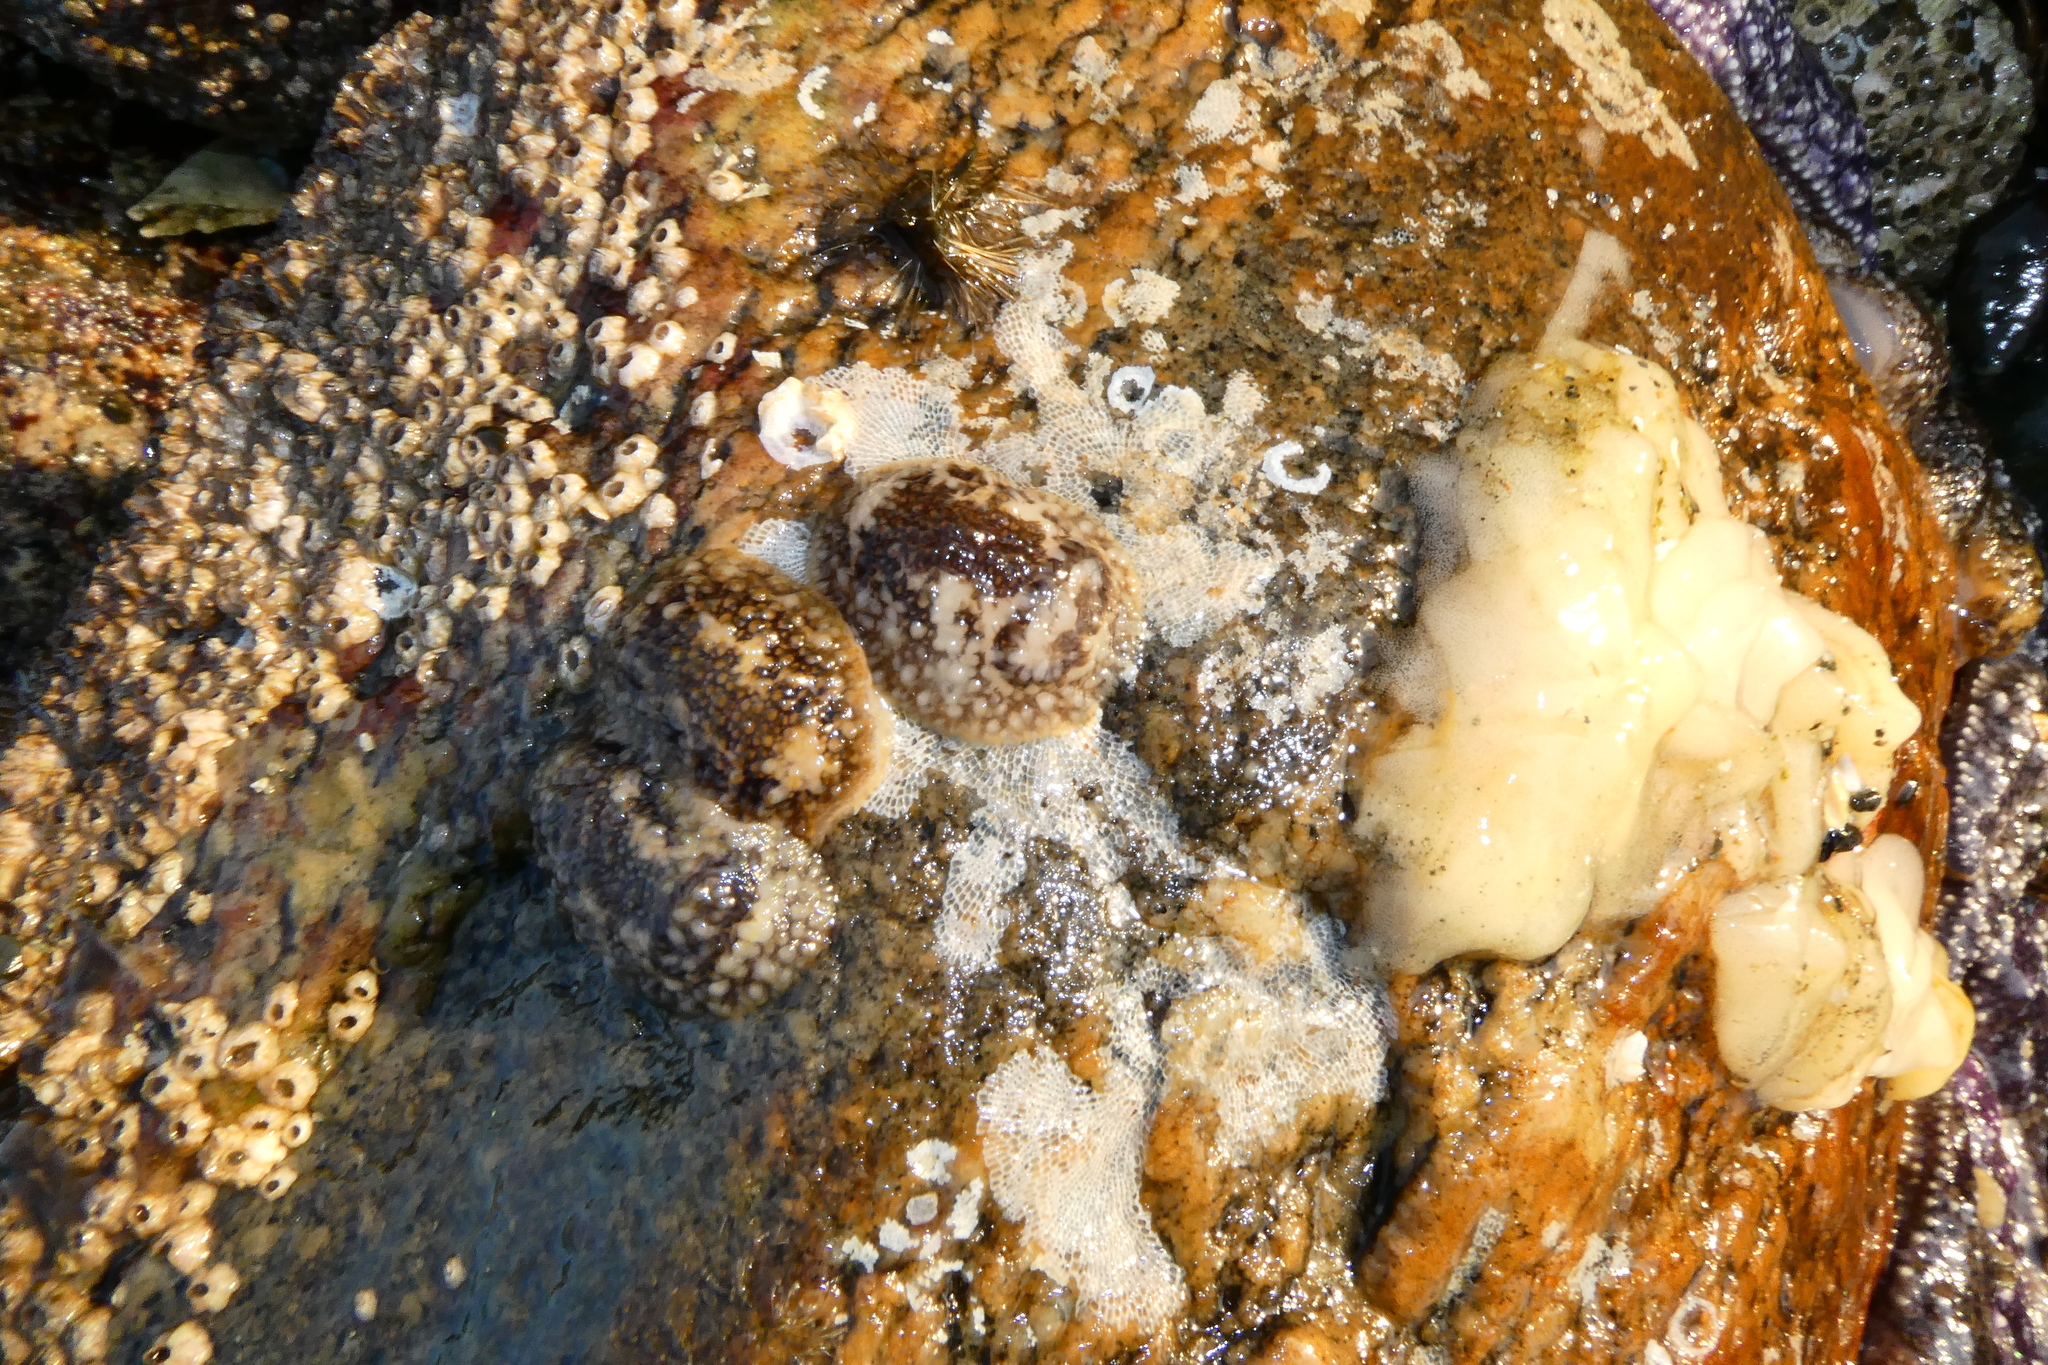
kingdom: Animalia
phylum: Mollusca
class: Gastropoda
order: Nudibranchia
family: Onchidorididae
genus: Onchidoris
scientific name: Onchidoris bilamellata
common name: Barnacle-eating onchidoris
